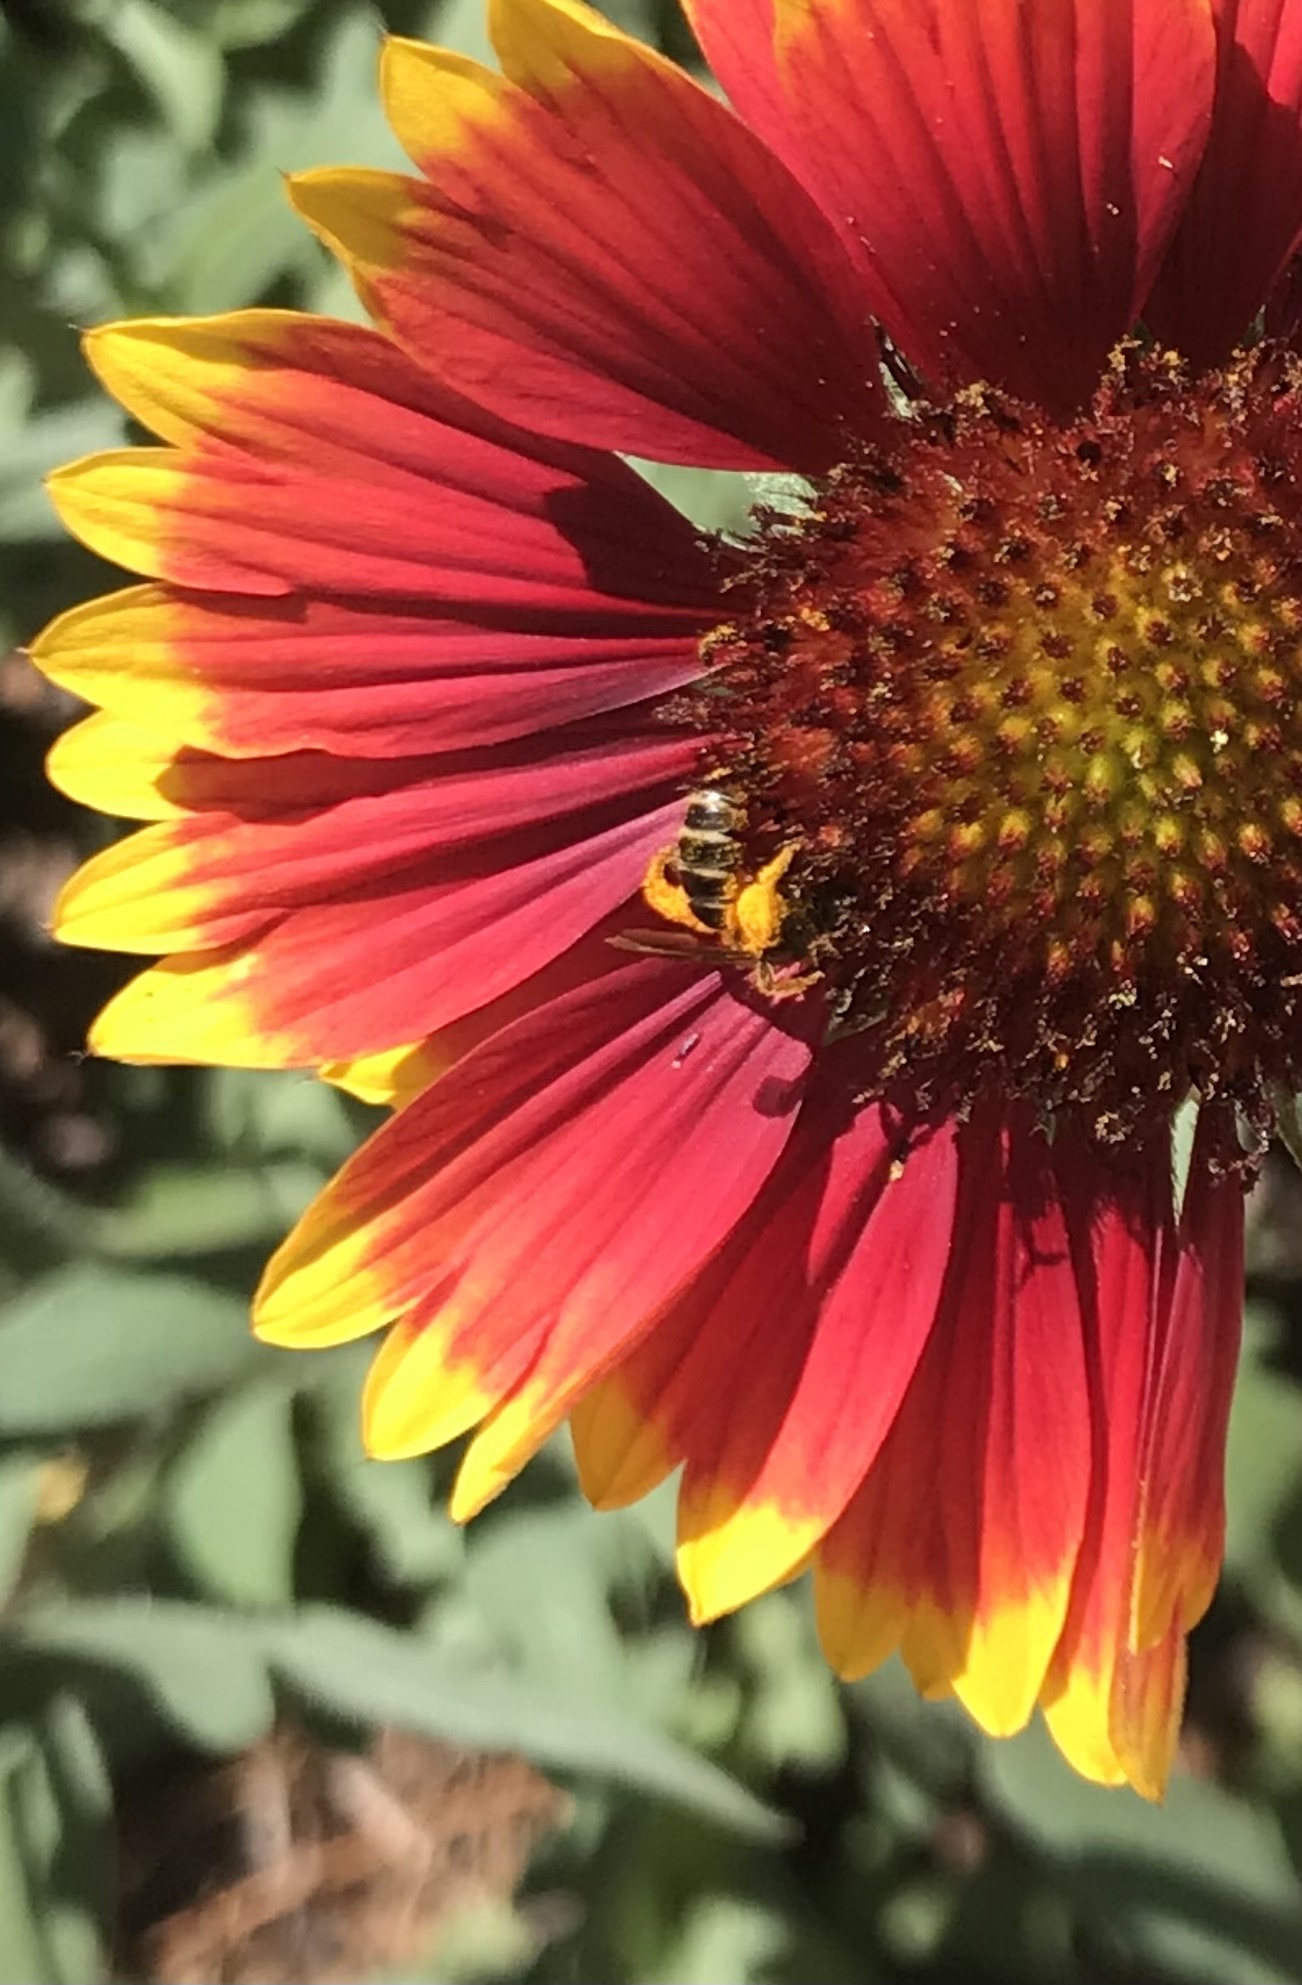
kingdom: Animalia
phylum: Arthropoda
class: Insecta
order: Hymenoptera
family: Halictidae
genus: Halictus
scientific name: Halictus ligatus
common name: Ligated furrow bee
